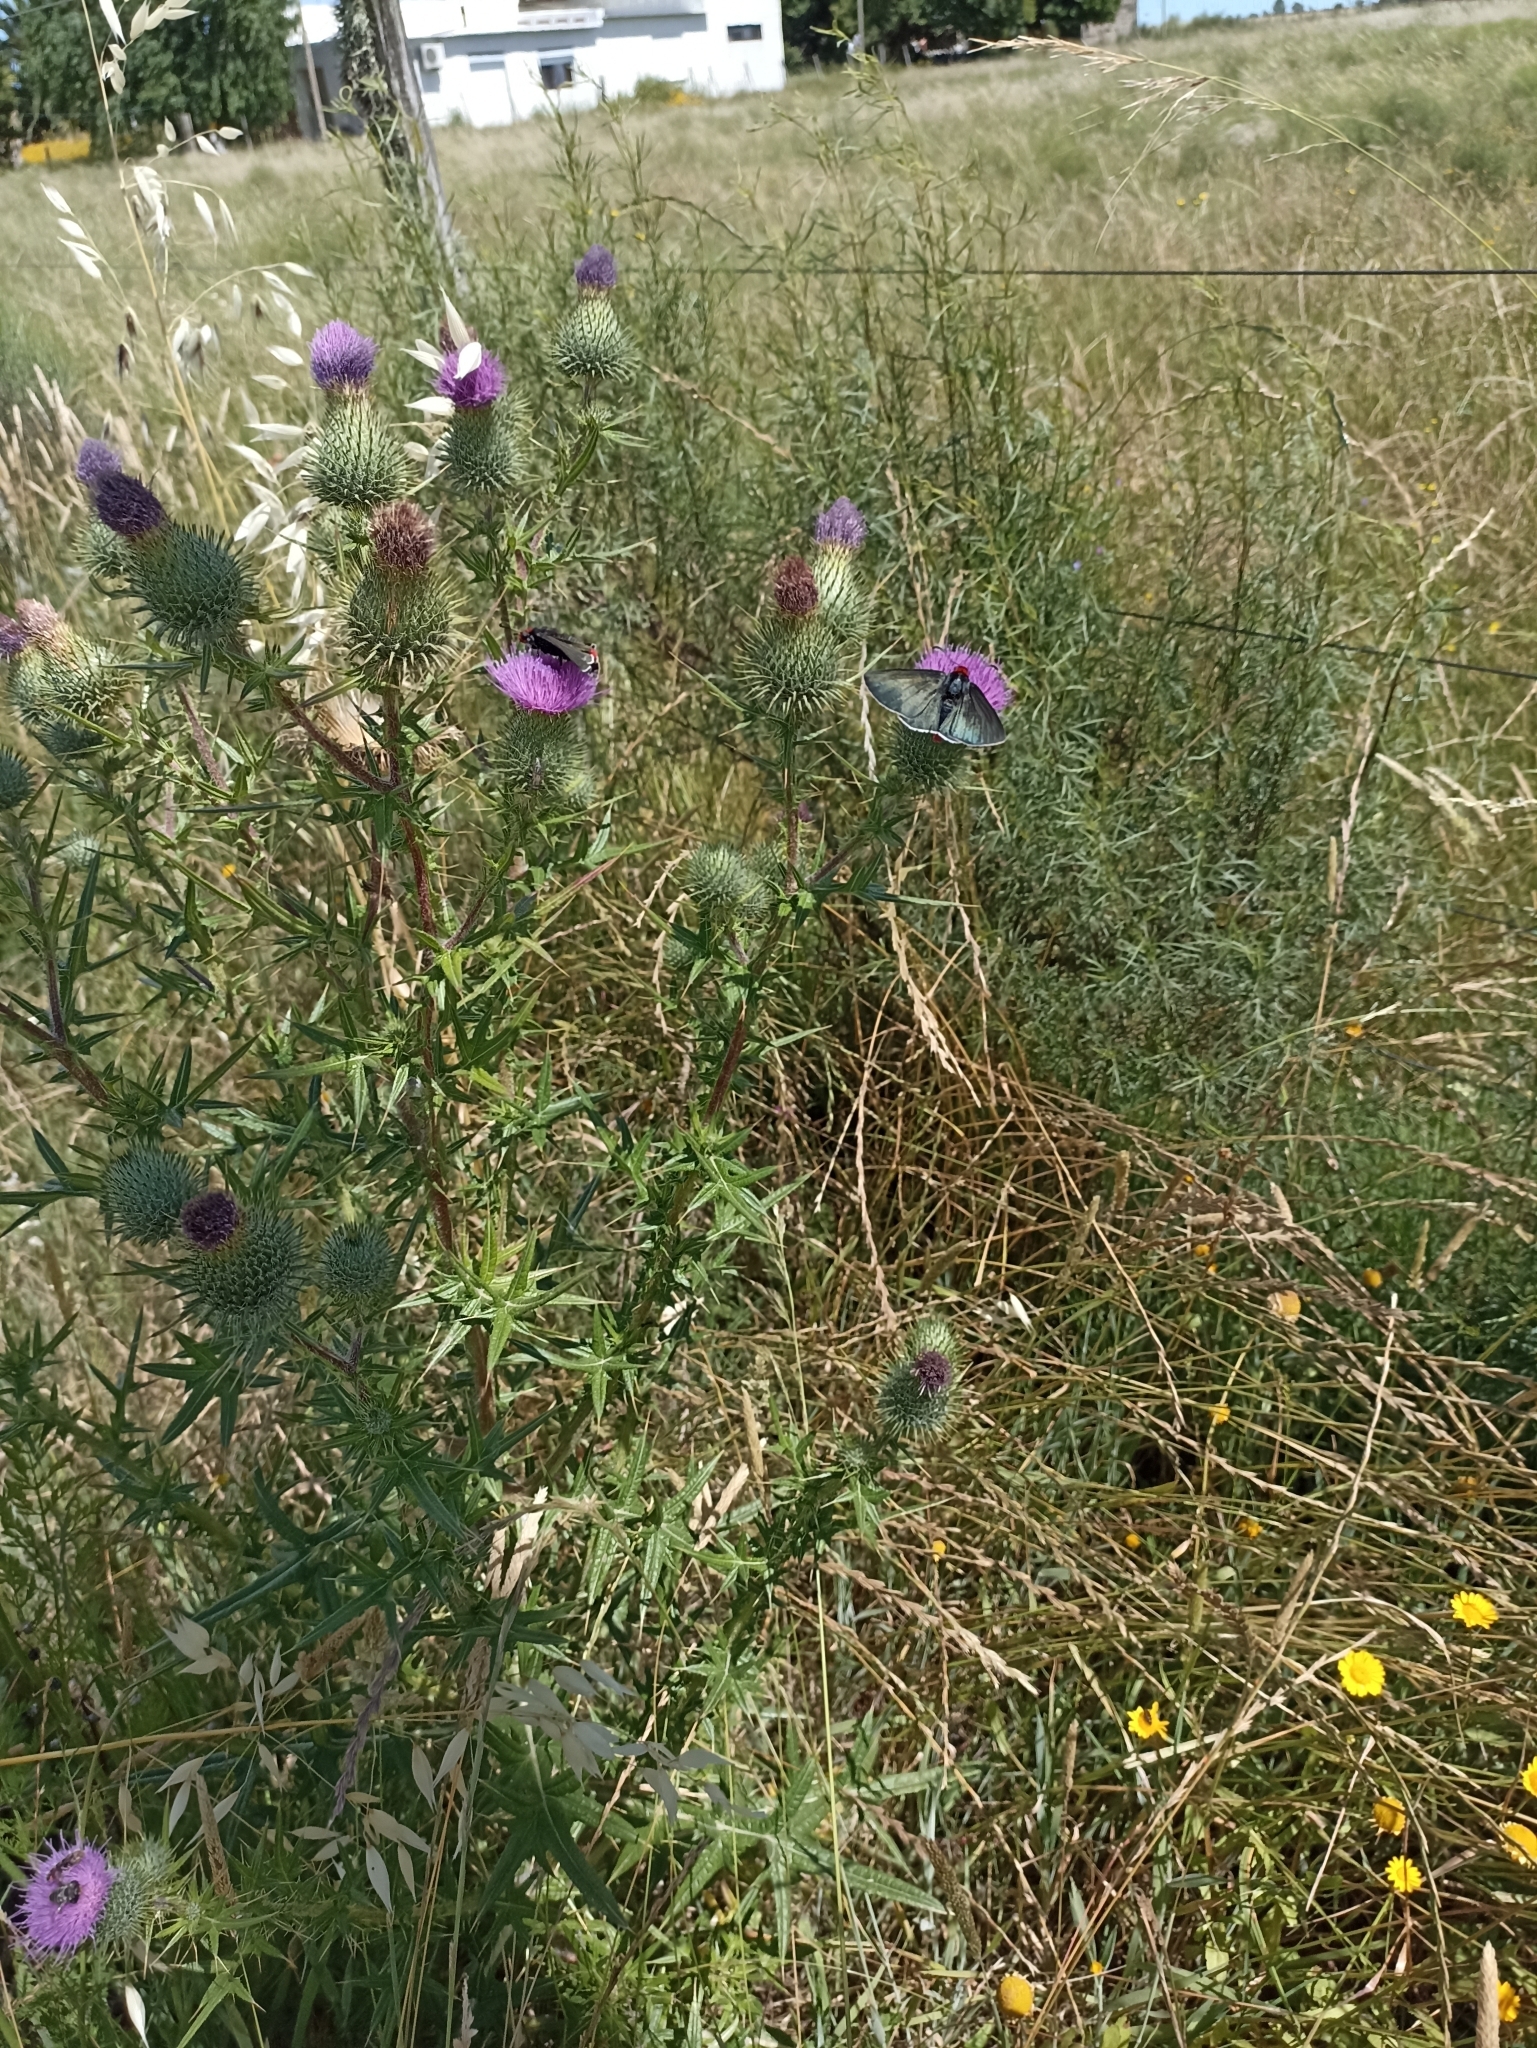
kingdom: Plantae
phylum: Tracheophyta
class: Magnoliopsida
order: Asterales
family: Asteraceae
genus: Cirsium
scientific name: Cirsium vulgare
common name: Bull thistle
